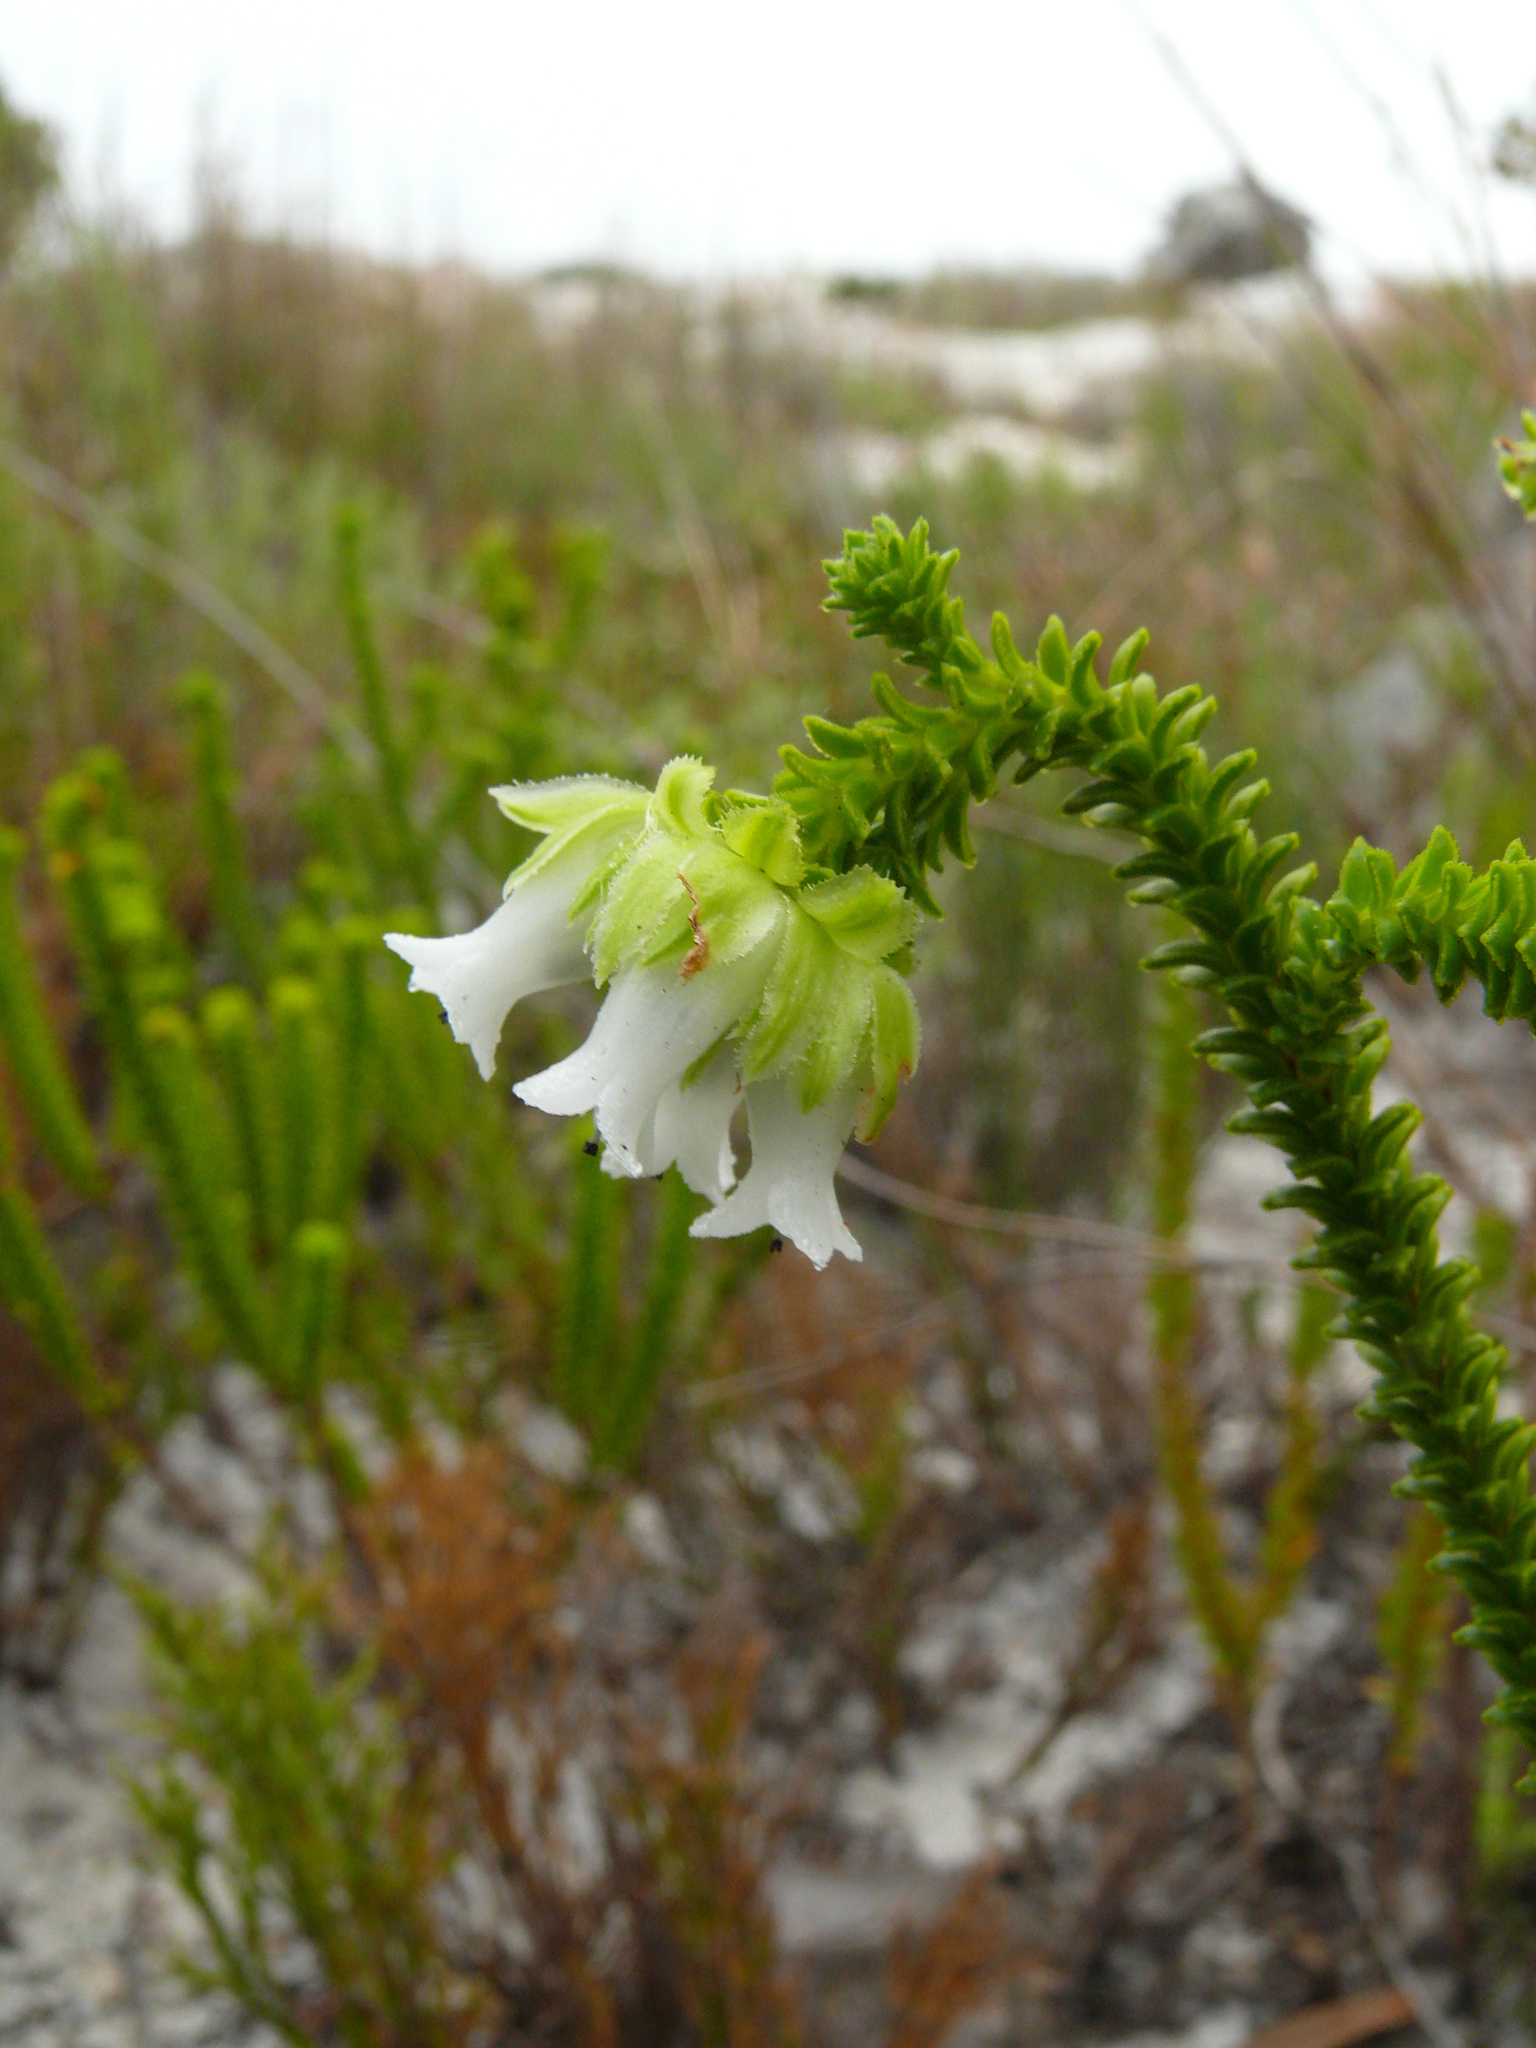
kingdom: Plantae
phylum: Tracheophyta
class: Magnoliopsida
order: Ericales
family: Ericaceae
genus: Erica
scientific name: Erica fairii
